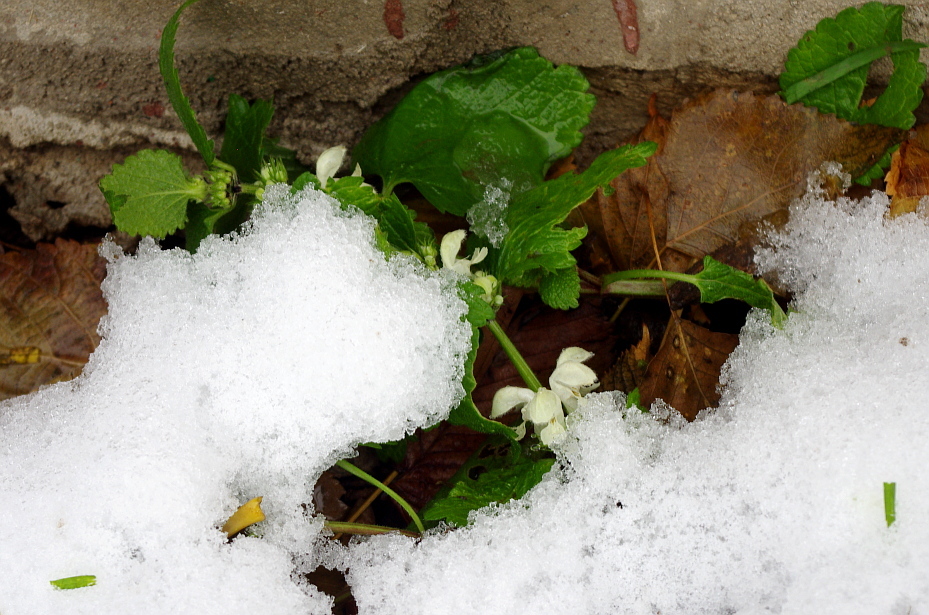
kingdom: Plantae
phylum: Tracheophyta
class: Magnoliopsida
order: Lamiales
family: Lamiaceae
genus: Lamium
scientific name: Lamium album
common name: White dead-nettle
